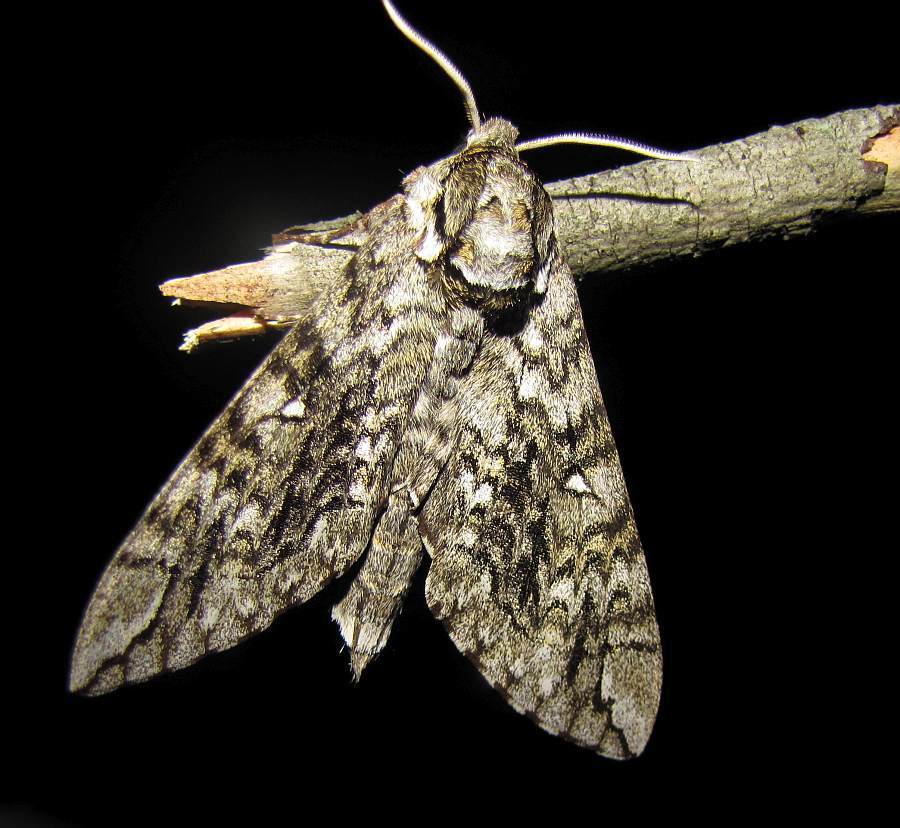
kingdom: Animalia
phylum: Arthropoda
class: Insecta
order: Lepidoptera
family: Sphingidae
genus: Ceratomia
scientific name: Ceratomia undulosa
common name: Waved sphinx
